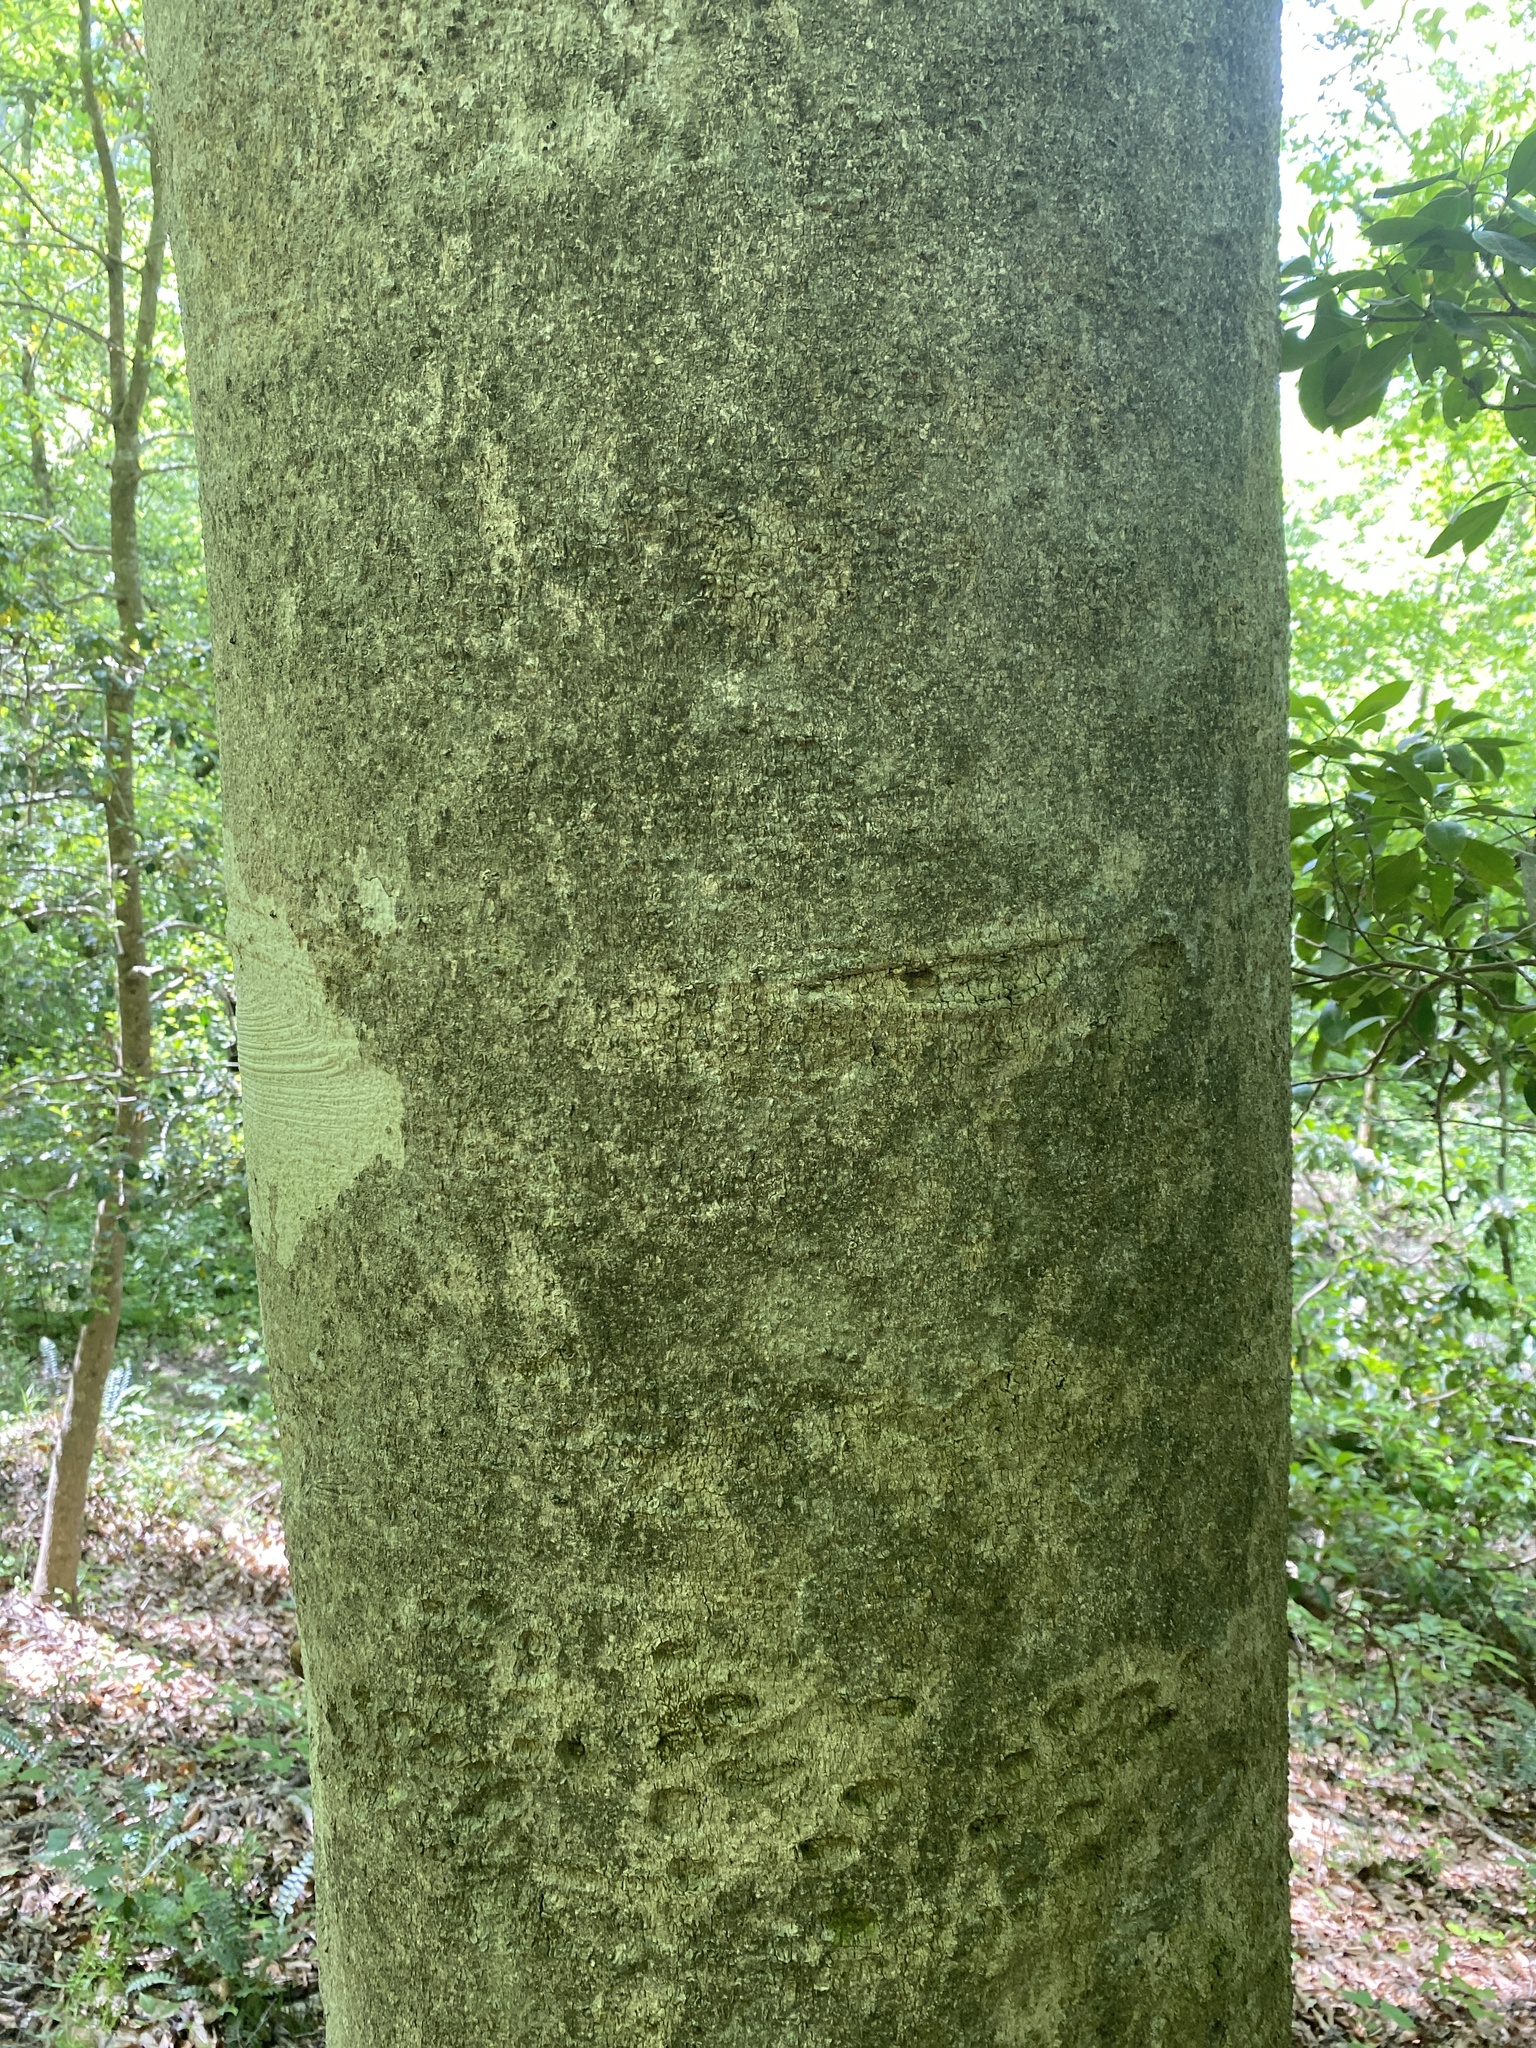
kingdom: Plantae
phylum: Tracheophyta
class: Magnoliopsida
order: Fagales
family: Fagaceae
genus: Fagus
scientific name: Fagus grandifolia
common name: American beech
